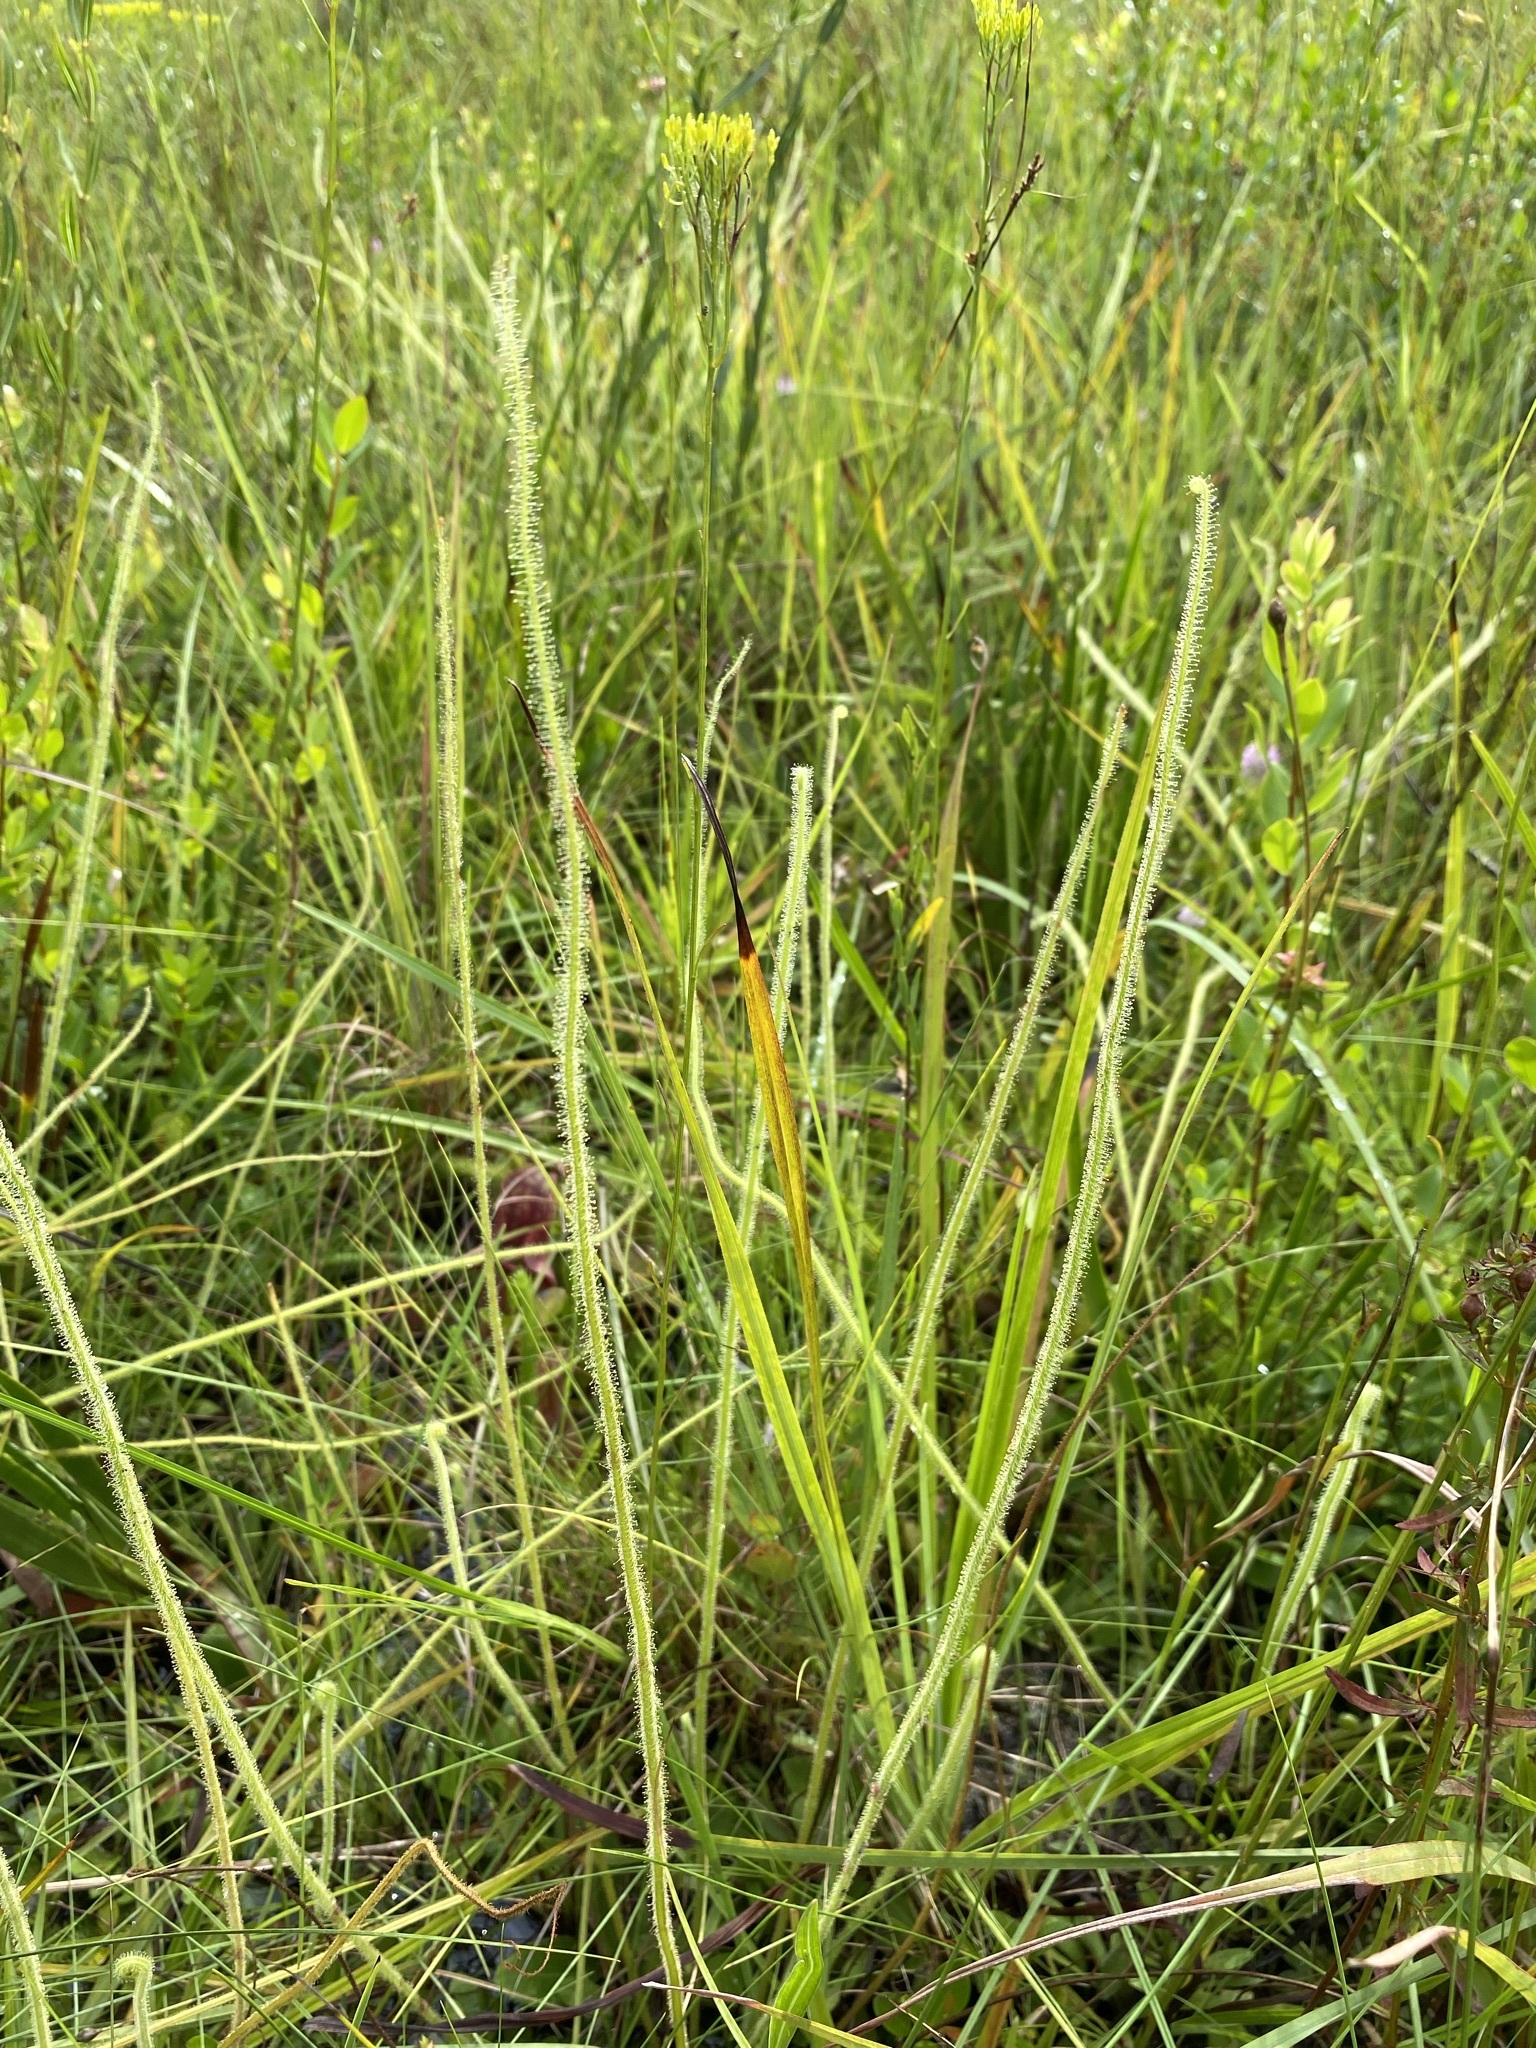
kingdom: Plantae
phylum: Tracheophyta
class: Magnoliopsida
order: Caryophyllales
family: Droseraceae
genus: Drosera
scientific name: Drosera filiformis
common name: Dew-thread
